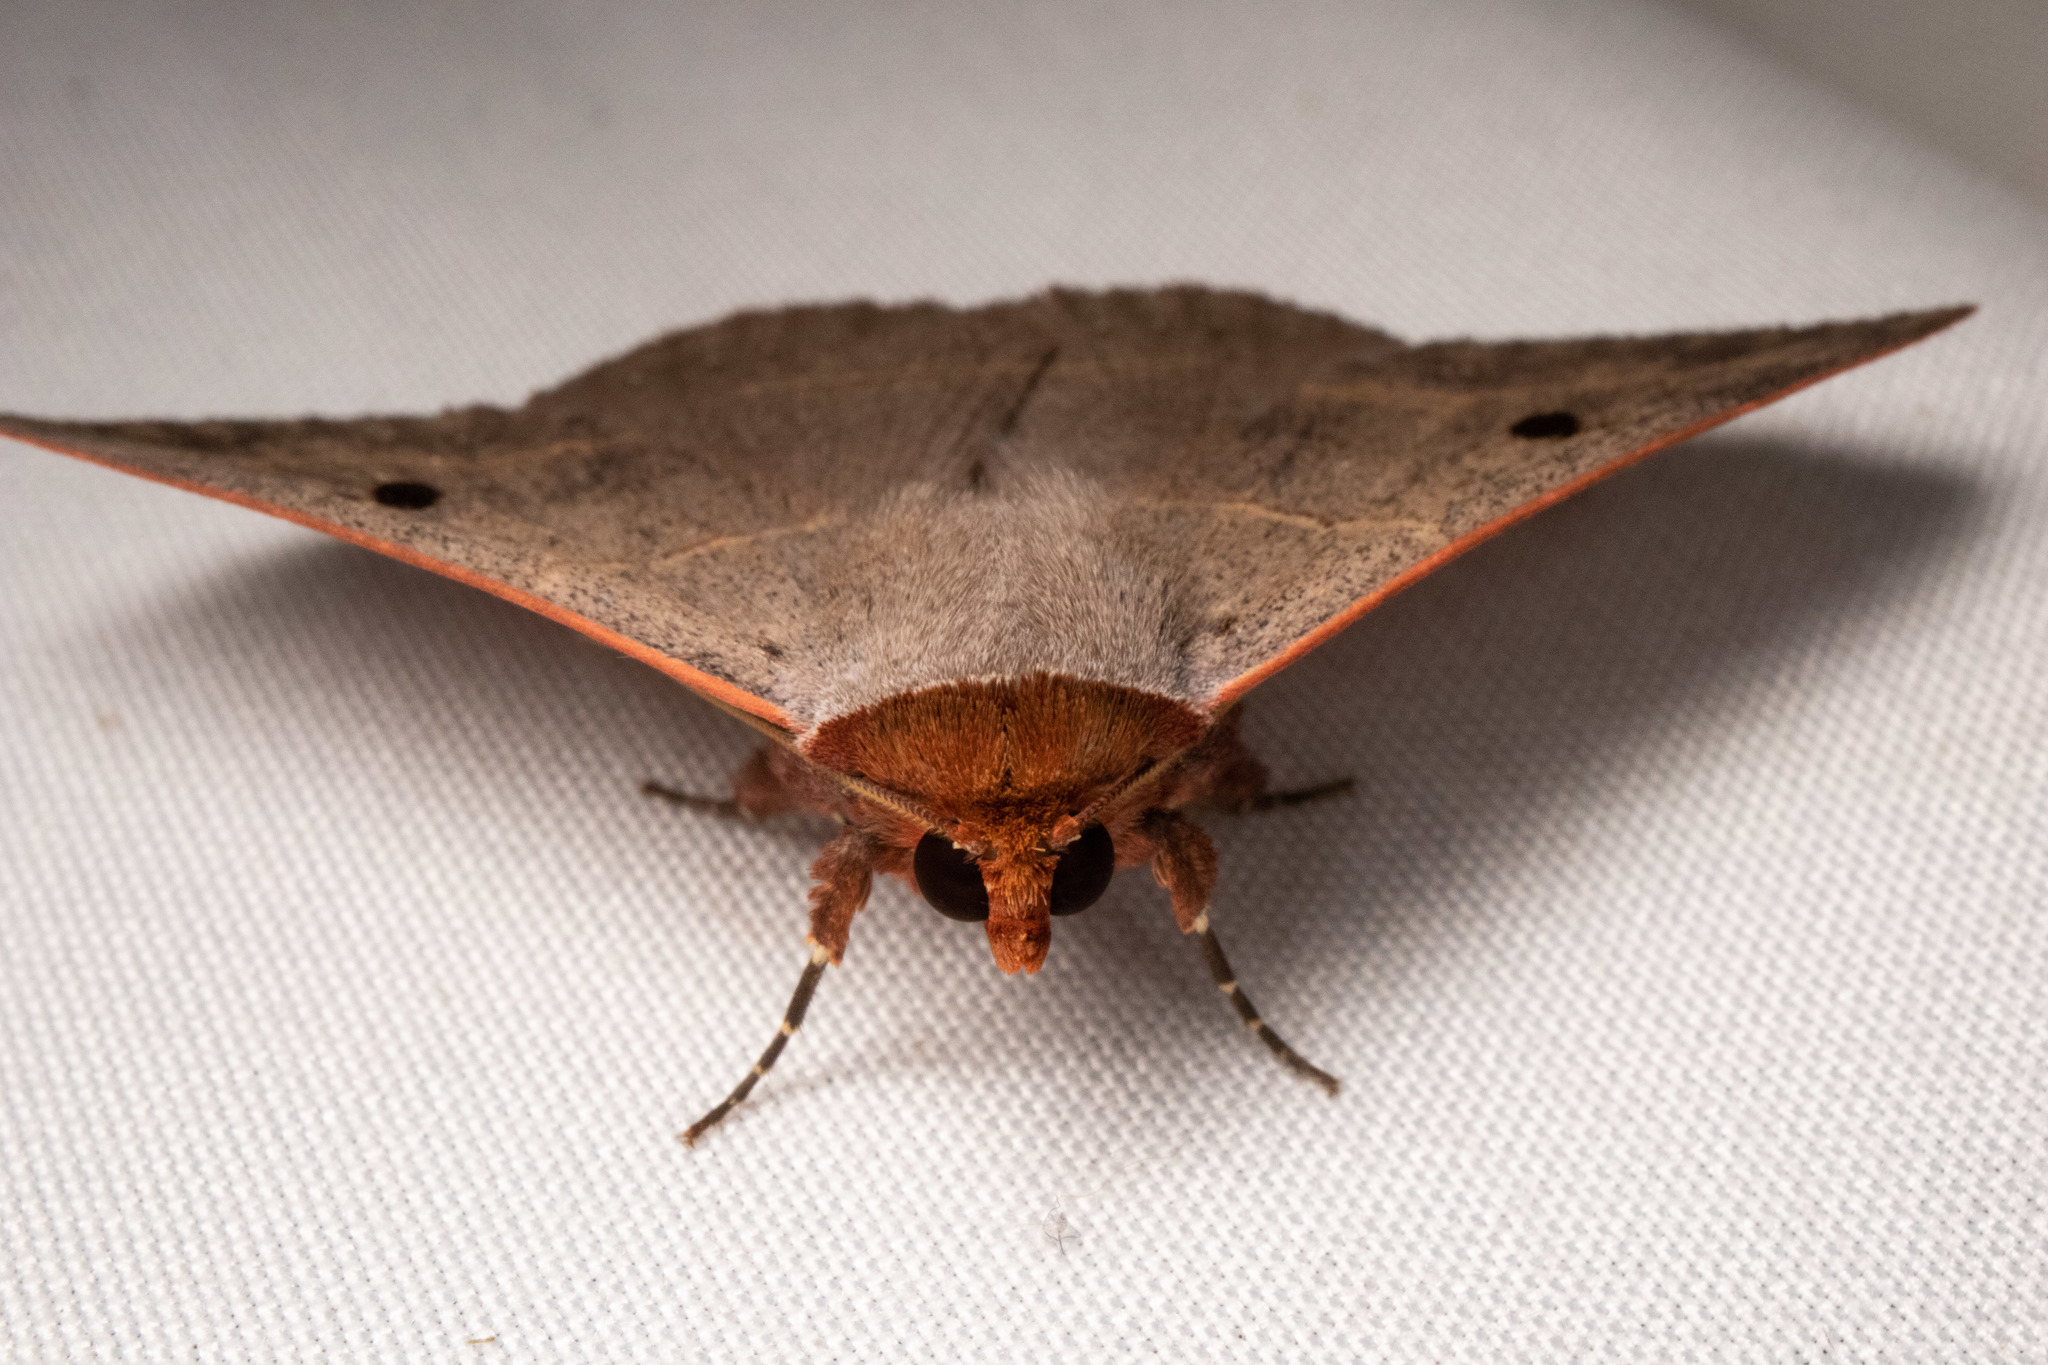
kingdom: Animalia
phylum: Arthropoda
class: Insecta
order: Lepidoptera
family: Erebidae
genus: Panopoda
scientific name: Panopoda rufimargo
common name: Red-lined panopoda moth
